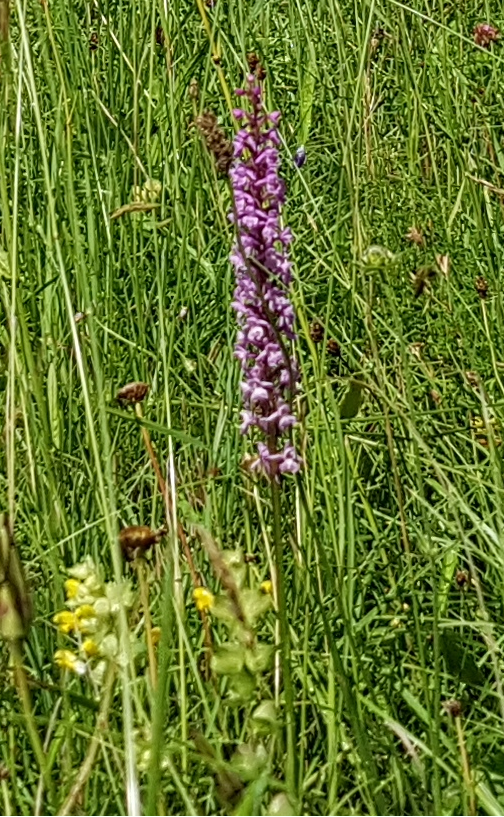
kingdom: Plantae
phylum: Tracheophyta
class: Liliopsida
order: Asparagales
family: Orchidaceae
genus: Gymnadenia
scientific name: Gymnadenia conopsea
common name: Fragrant orchid
